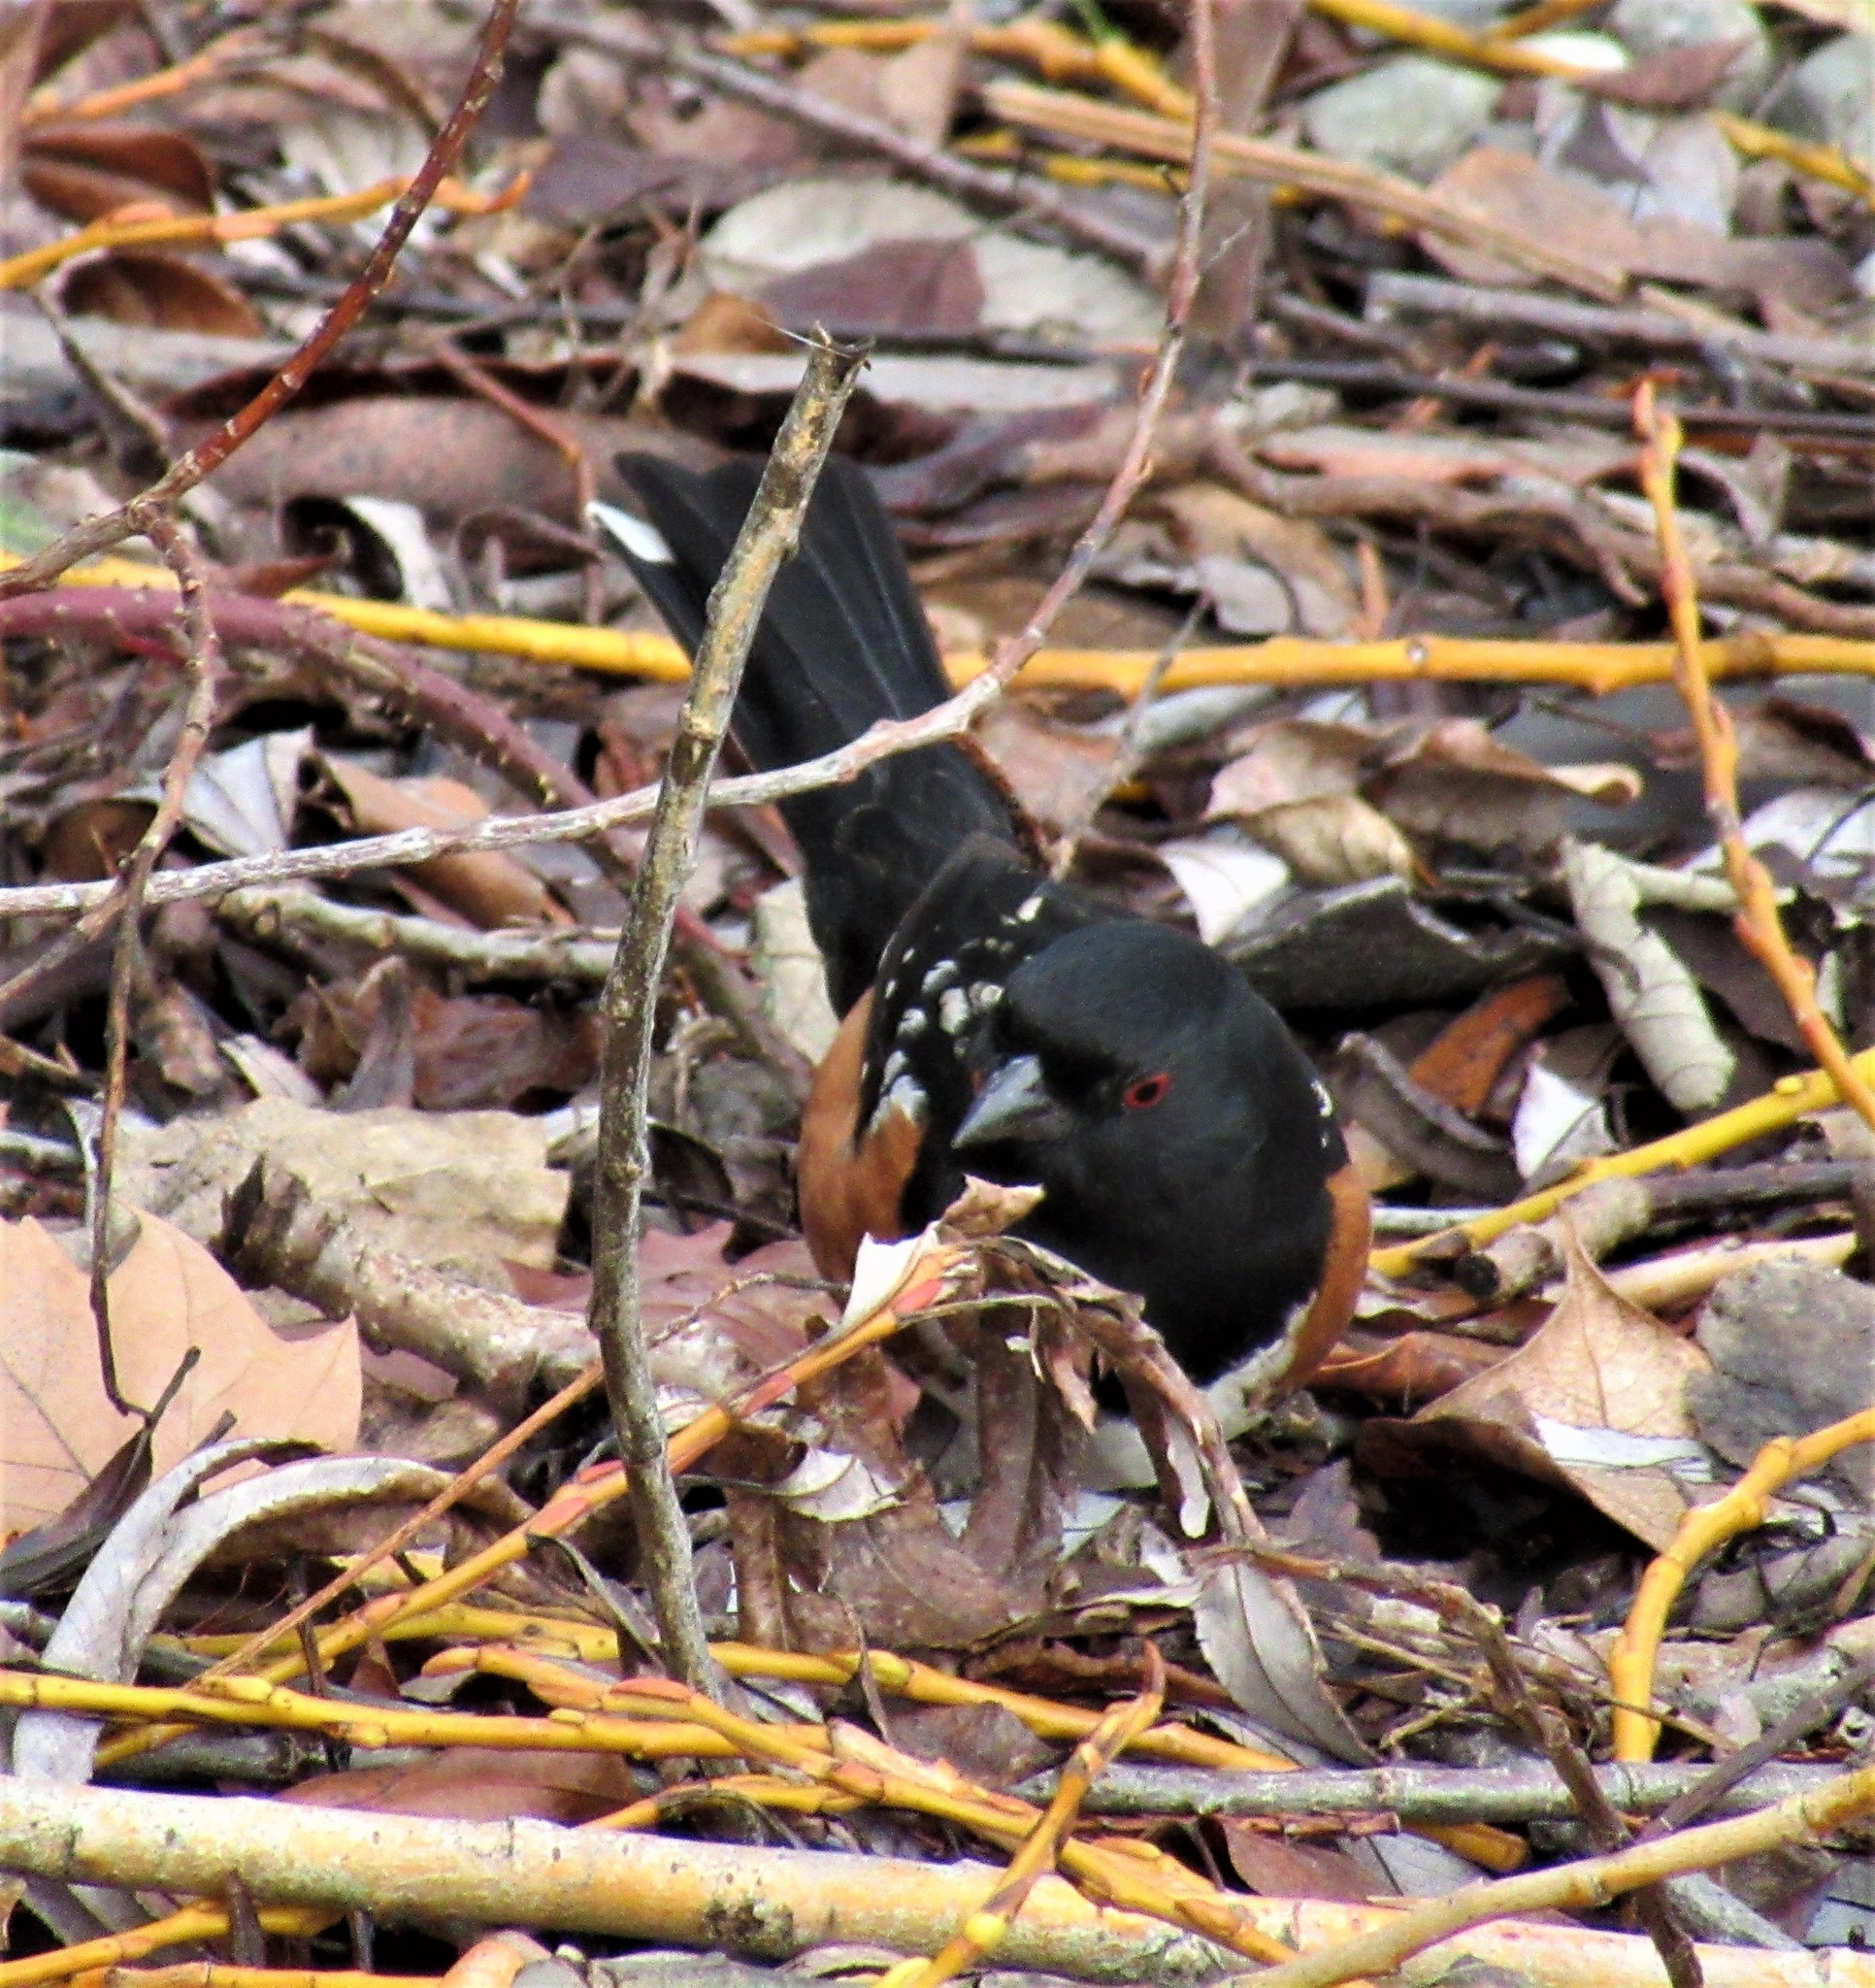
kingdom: Animalia
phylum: Chordata
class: Aves
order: Passeriformes
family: Passerellidae
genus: Pipilo
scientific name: Pipilo maculatus
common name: Spotted towhee
